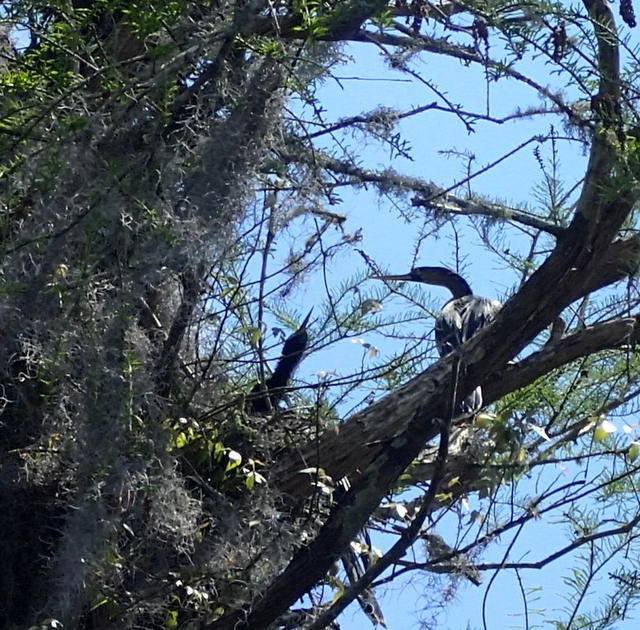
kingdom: Animalia
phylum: Chordata
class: Aves
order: Suliformes
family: Anhingidae
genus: Anhinga
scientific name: Anhinga anhinga
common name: Anhinga
